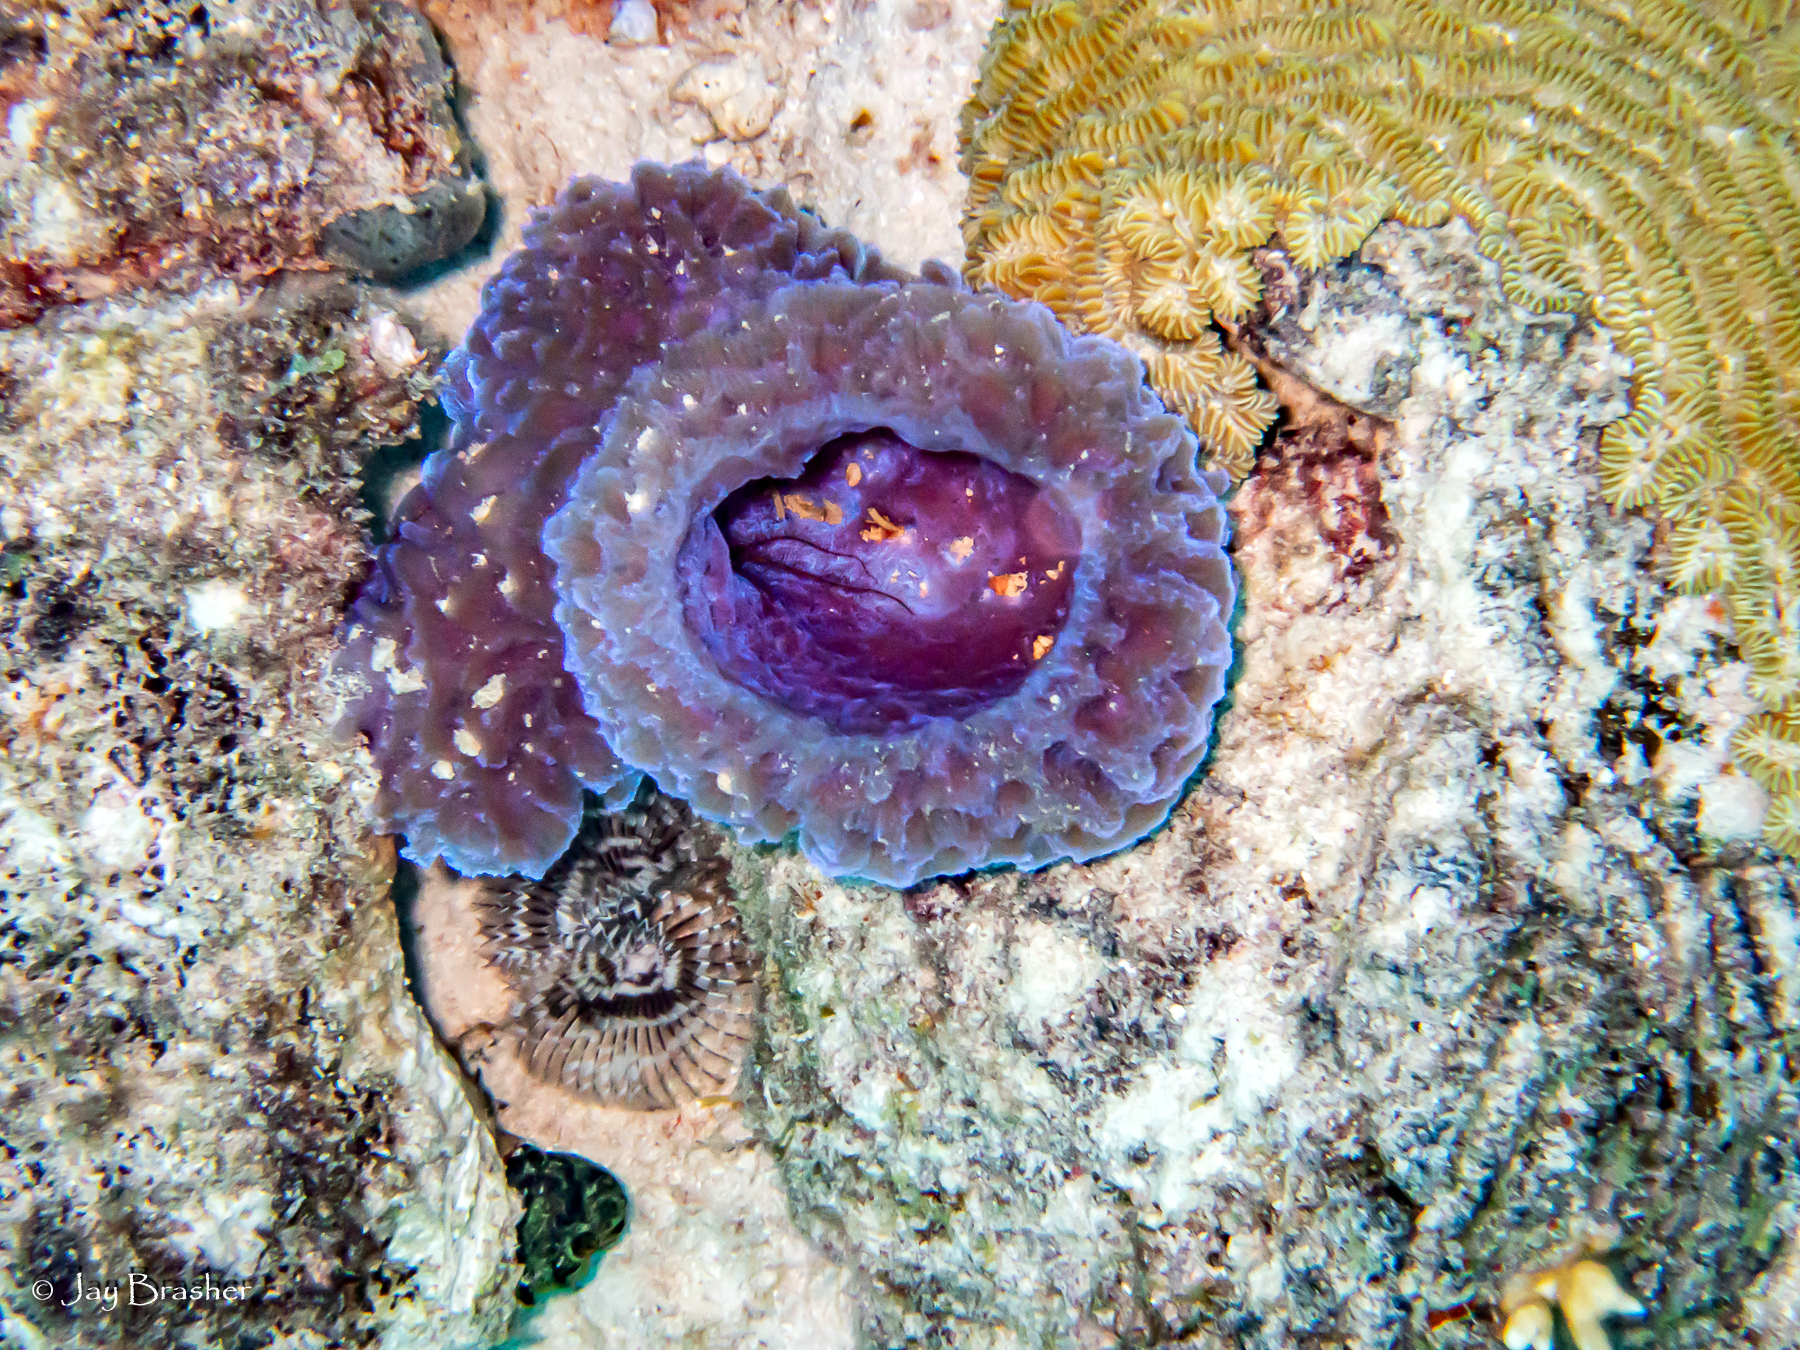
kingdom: Animalia
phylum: Porifera
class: Demospongiae
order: Haplosclerida
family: Callyspongiidae
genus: Callyspongia
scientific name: Callyspongia plicifera
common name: Azure vase sponge
